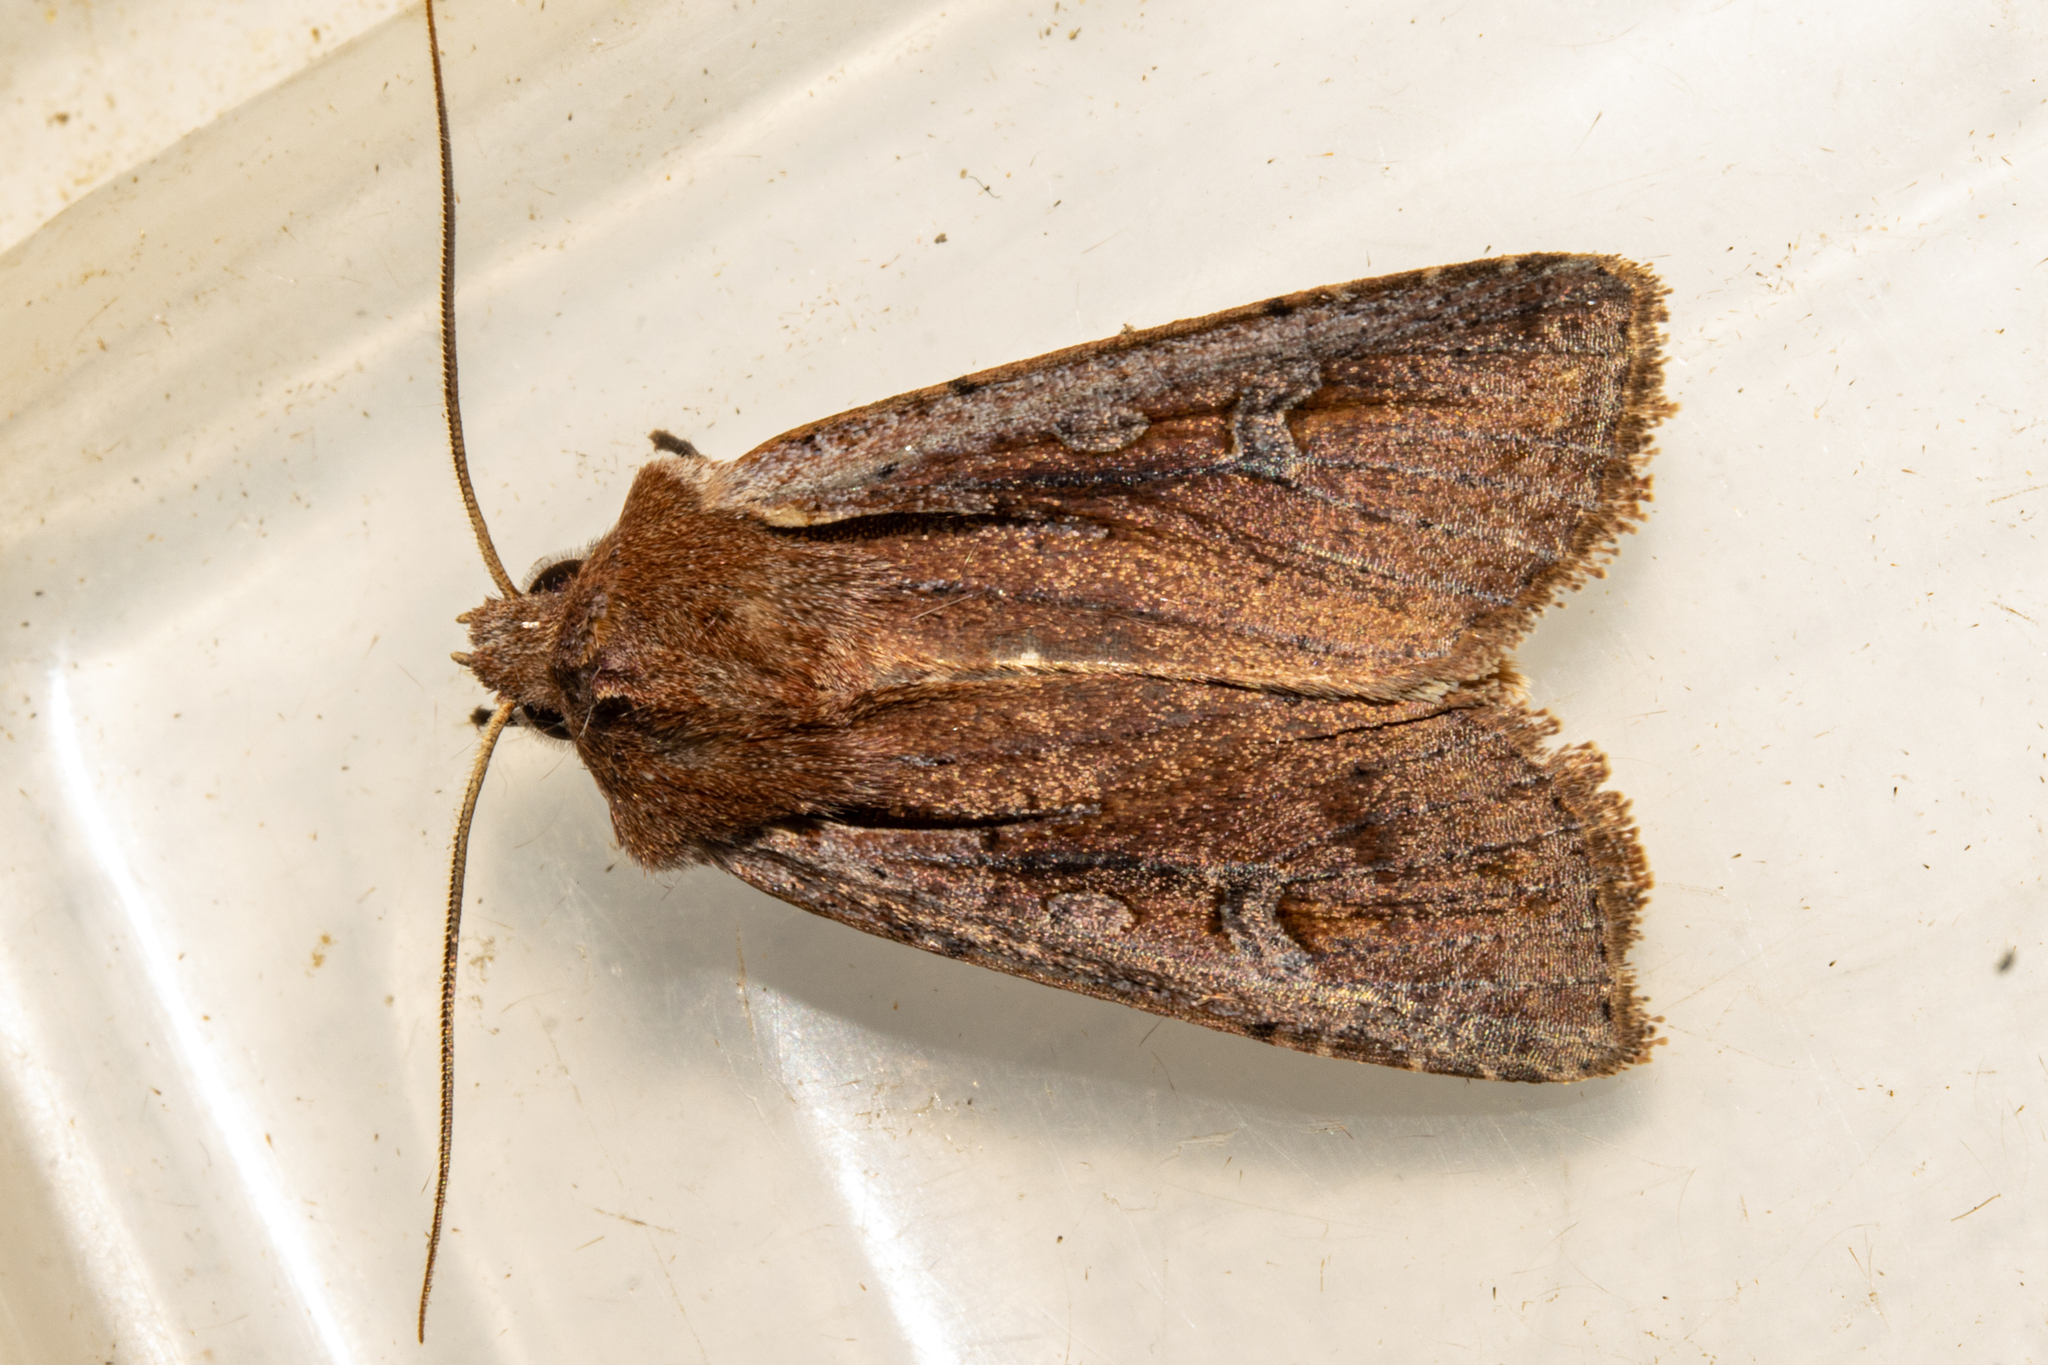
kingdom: Animalia
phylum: Arthropoda
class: Insecta
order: Lepidoptera
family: Noctuidae
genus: Ichneutica
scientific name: Ichneutica atristriga
